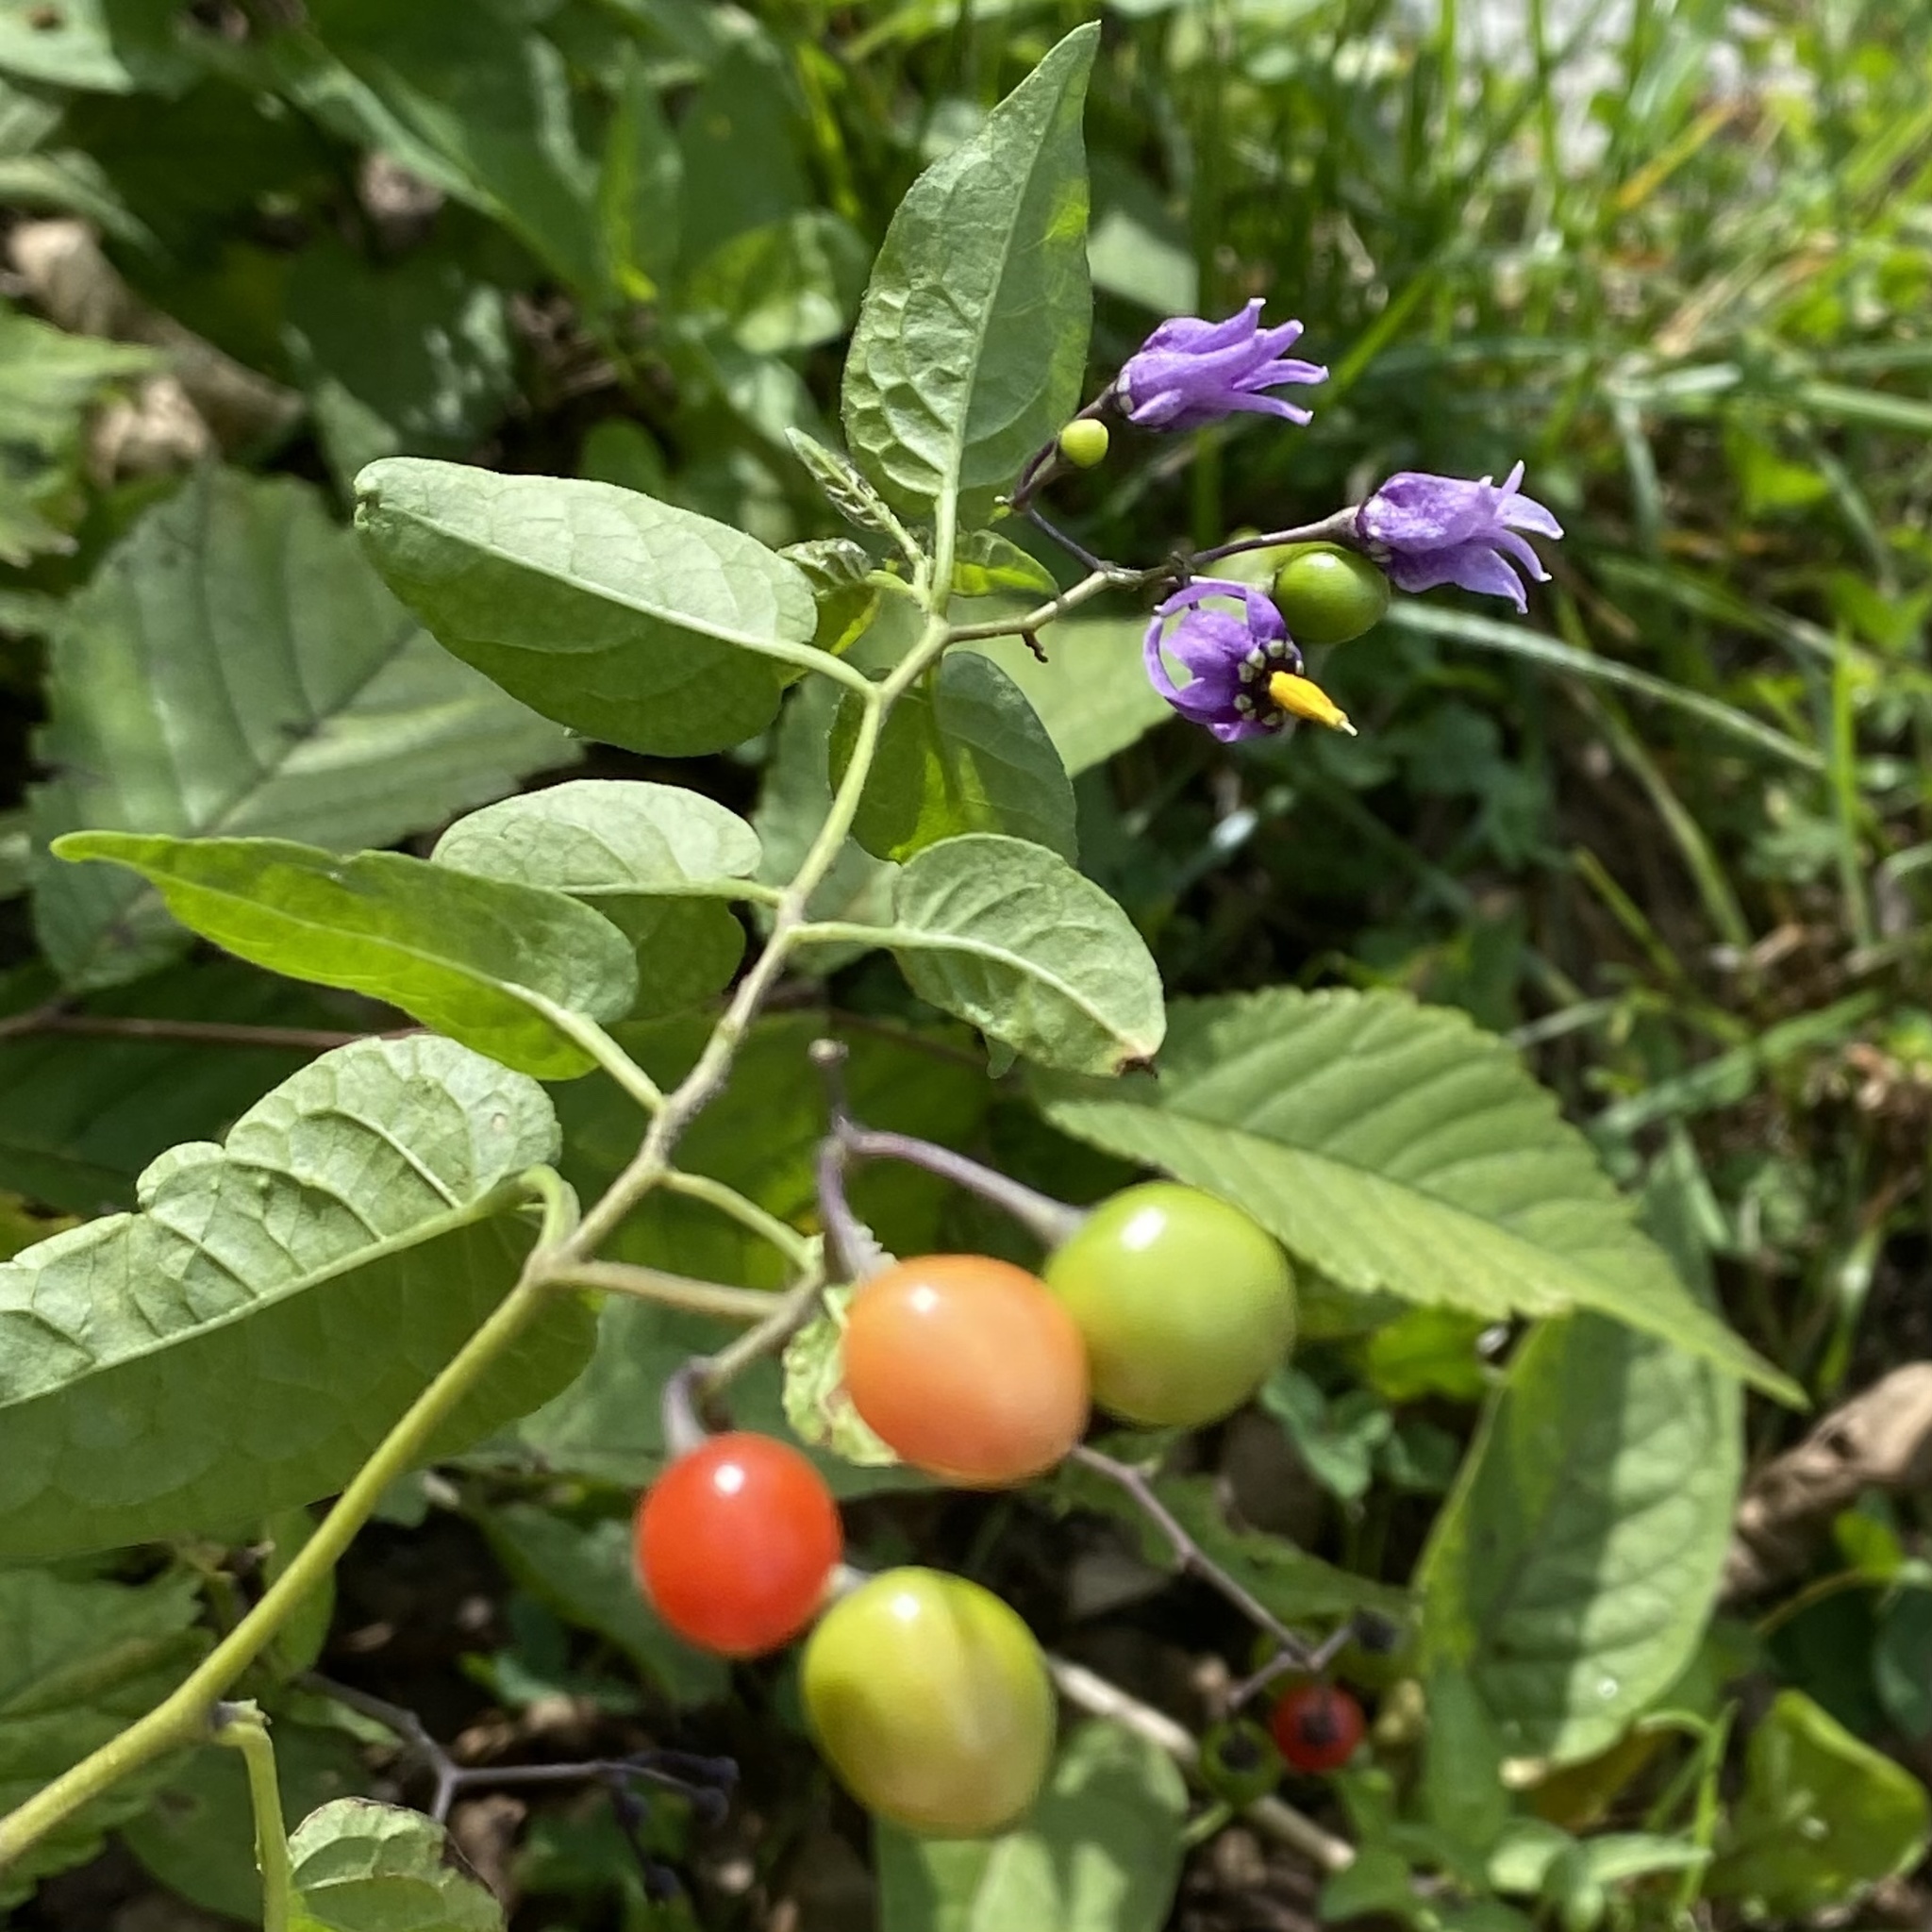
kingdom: Plantae
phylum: Tracheophyta
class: Magnoliopsida
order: Solanales
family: Solanaceae
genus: Solanum
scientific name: Solanum dulcamara
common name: Climbing nightshade
